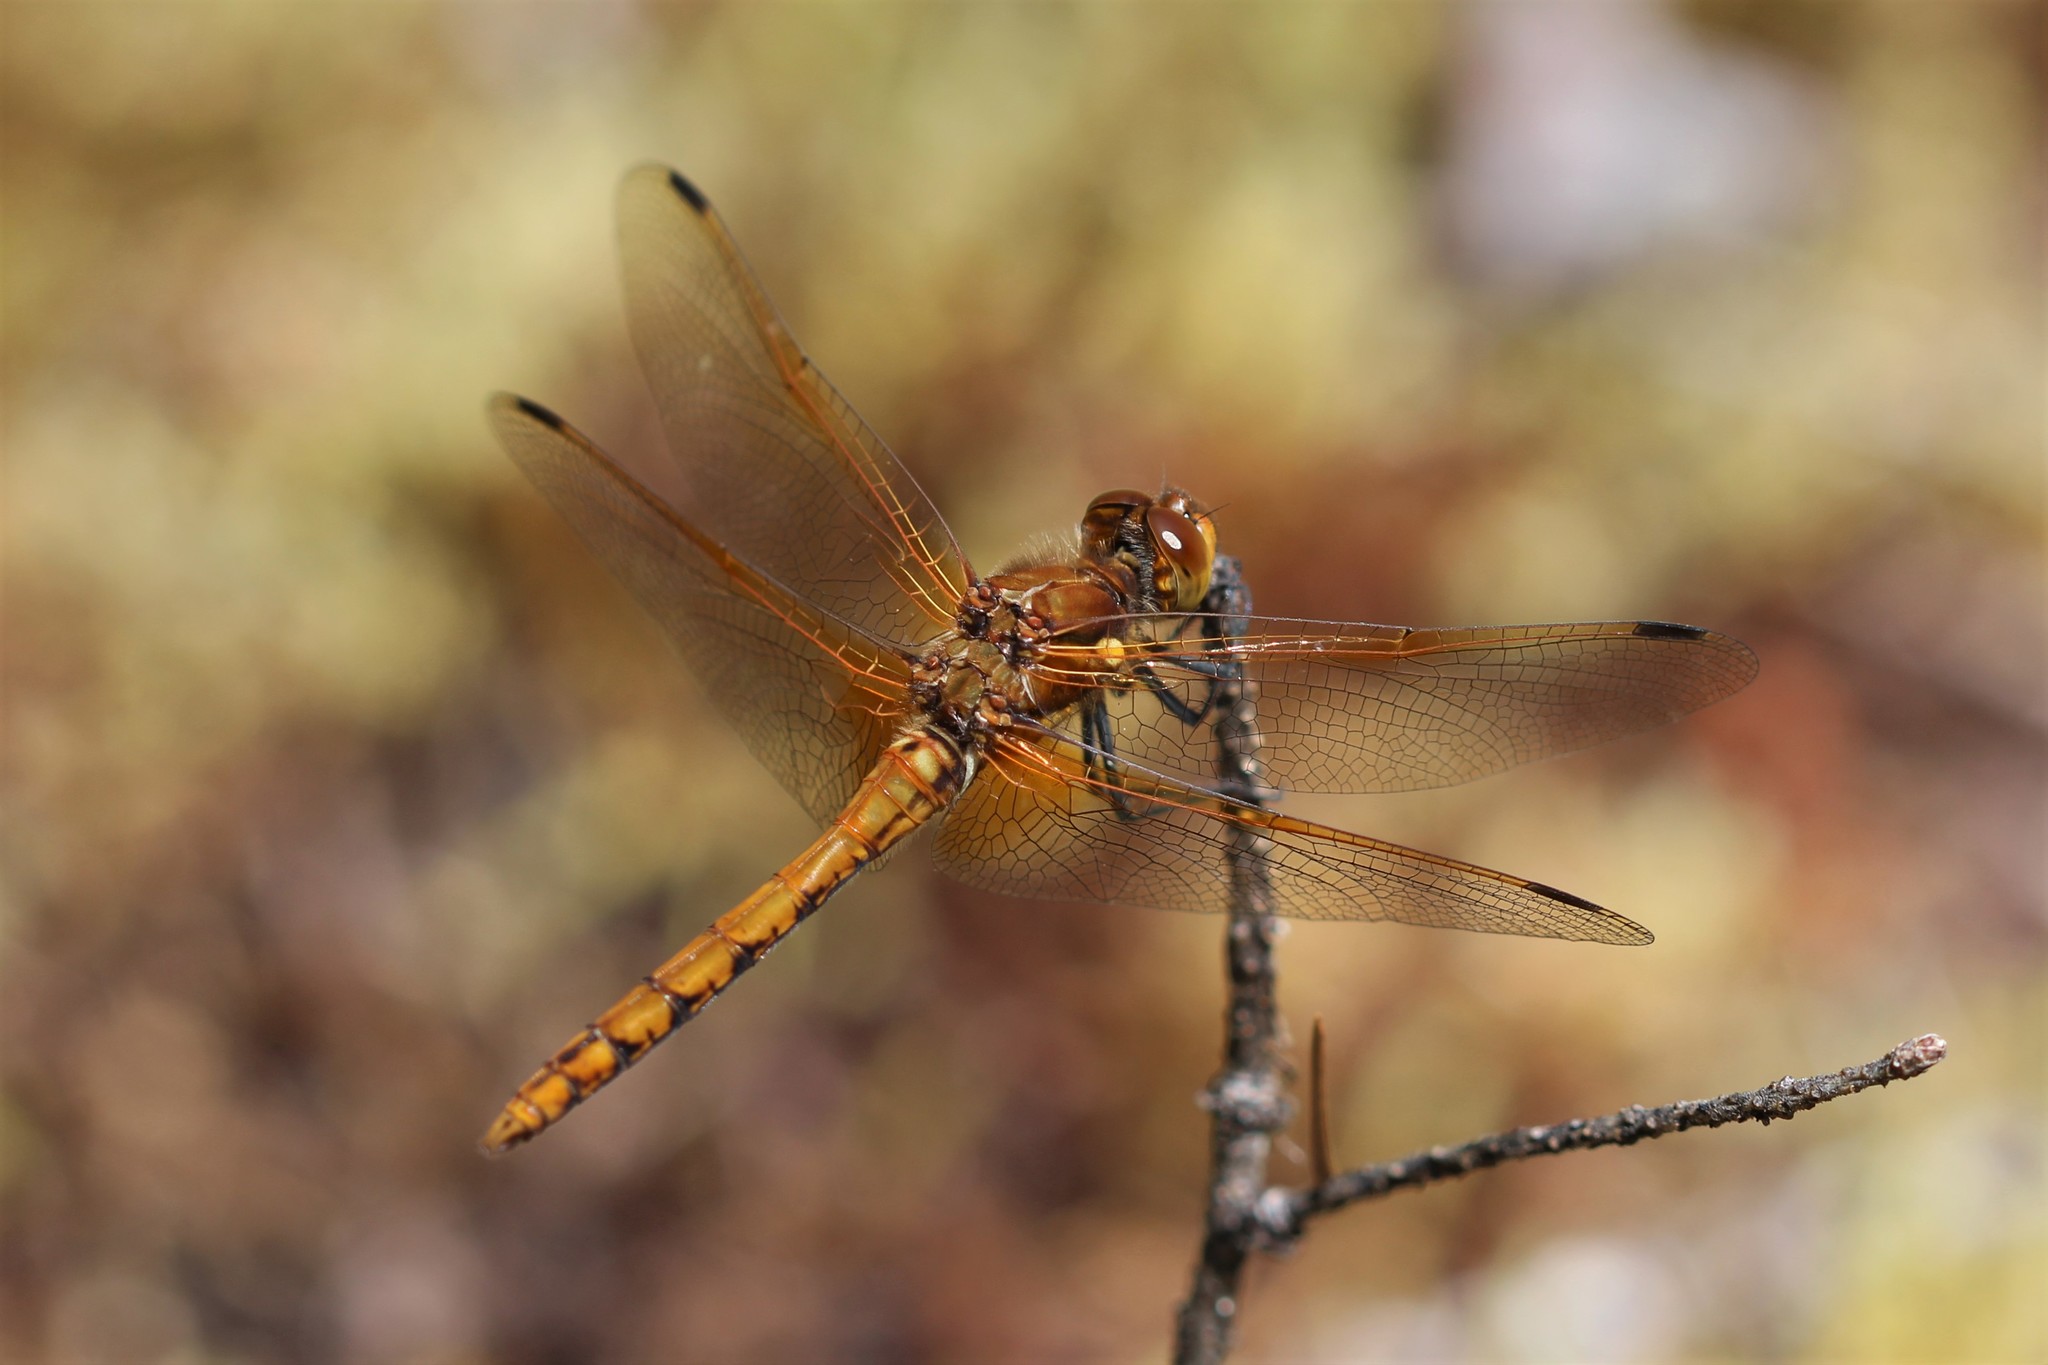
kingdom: Animalia
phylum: Arthropoda
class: Insecta
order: Odonata
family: Libellulidae
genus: Sympetrum
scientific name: Sympetrum madidum
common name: Red-veined meadowhawk
